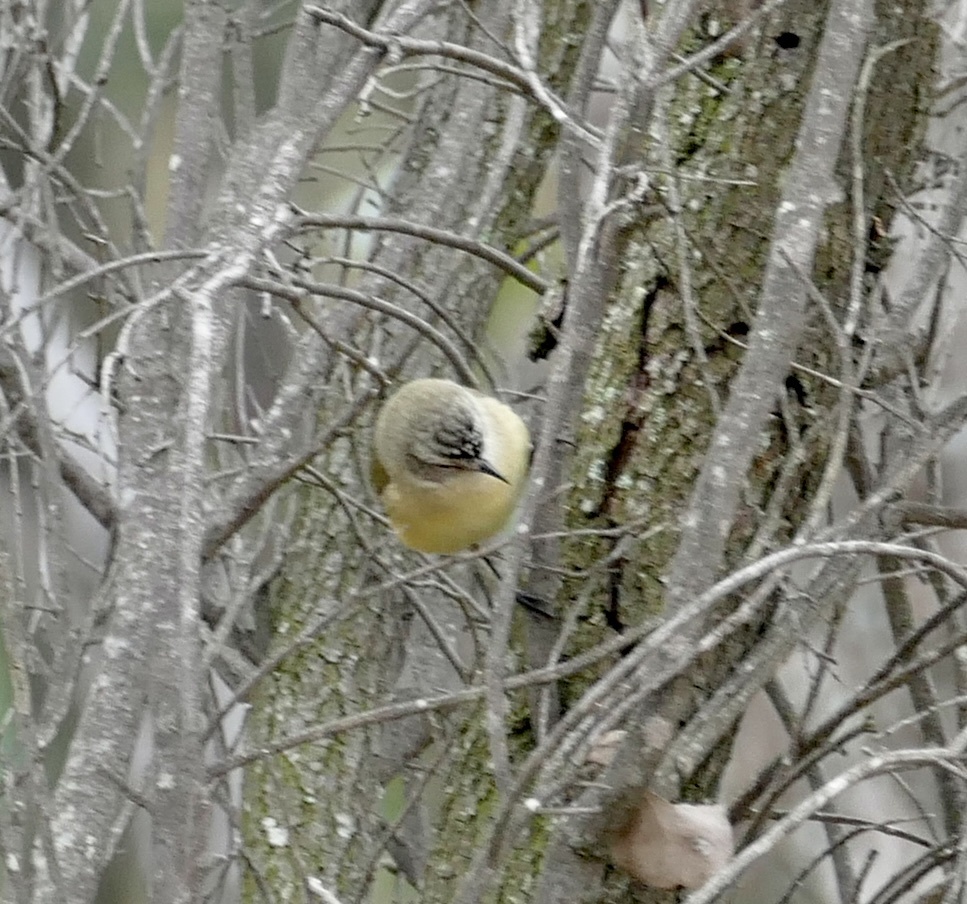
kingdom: Animalia
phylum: Chordata
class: Aves
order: Passeriformes
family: Acanthizidae
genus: Acanthiza
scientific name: Acanthiza chrysorrhoa
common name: Yellow-rumped thornbill
